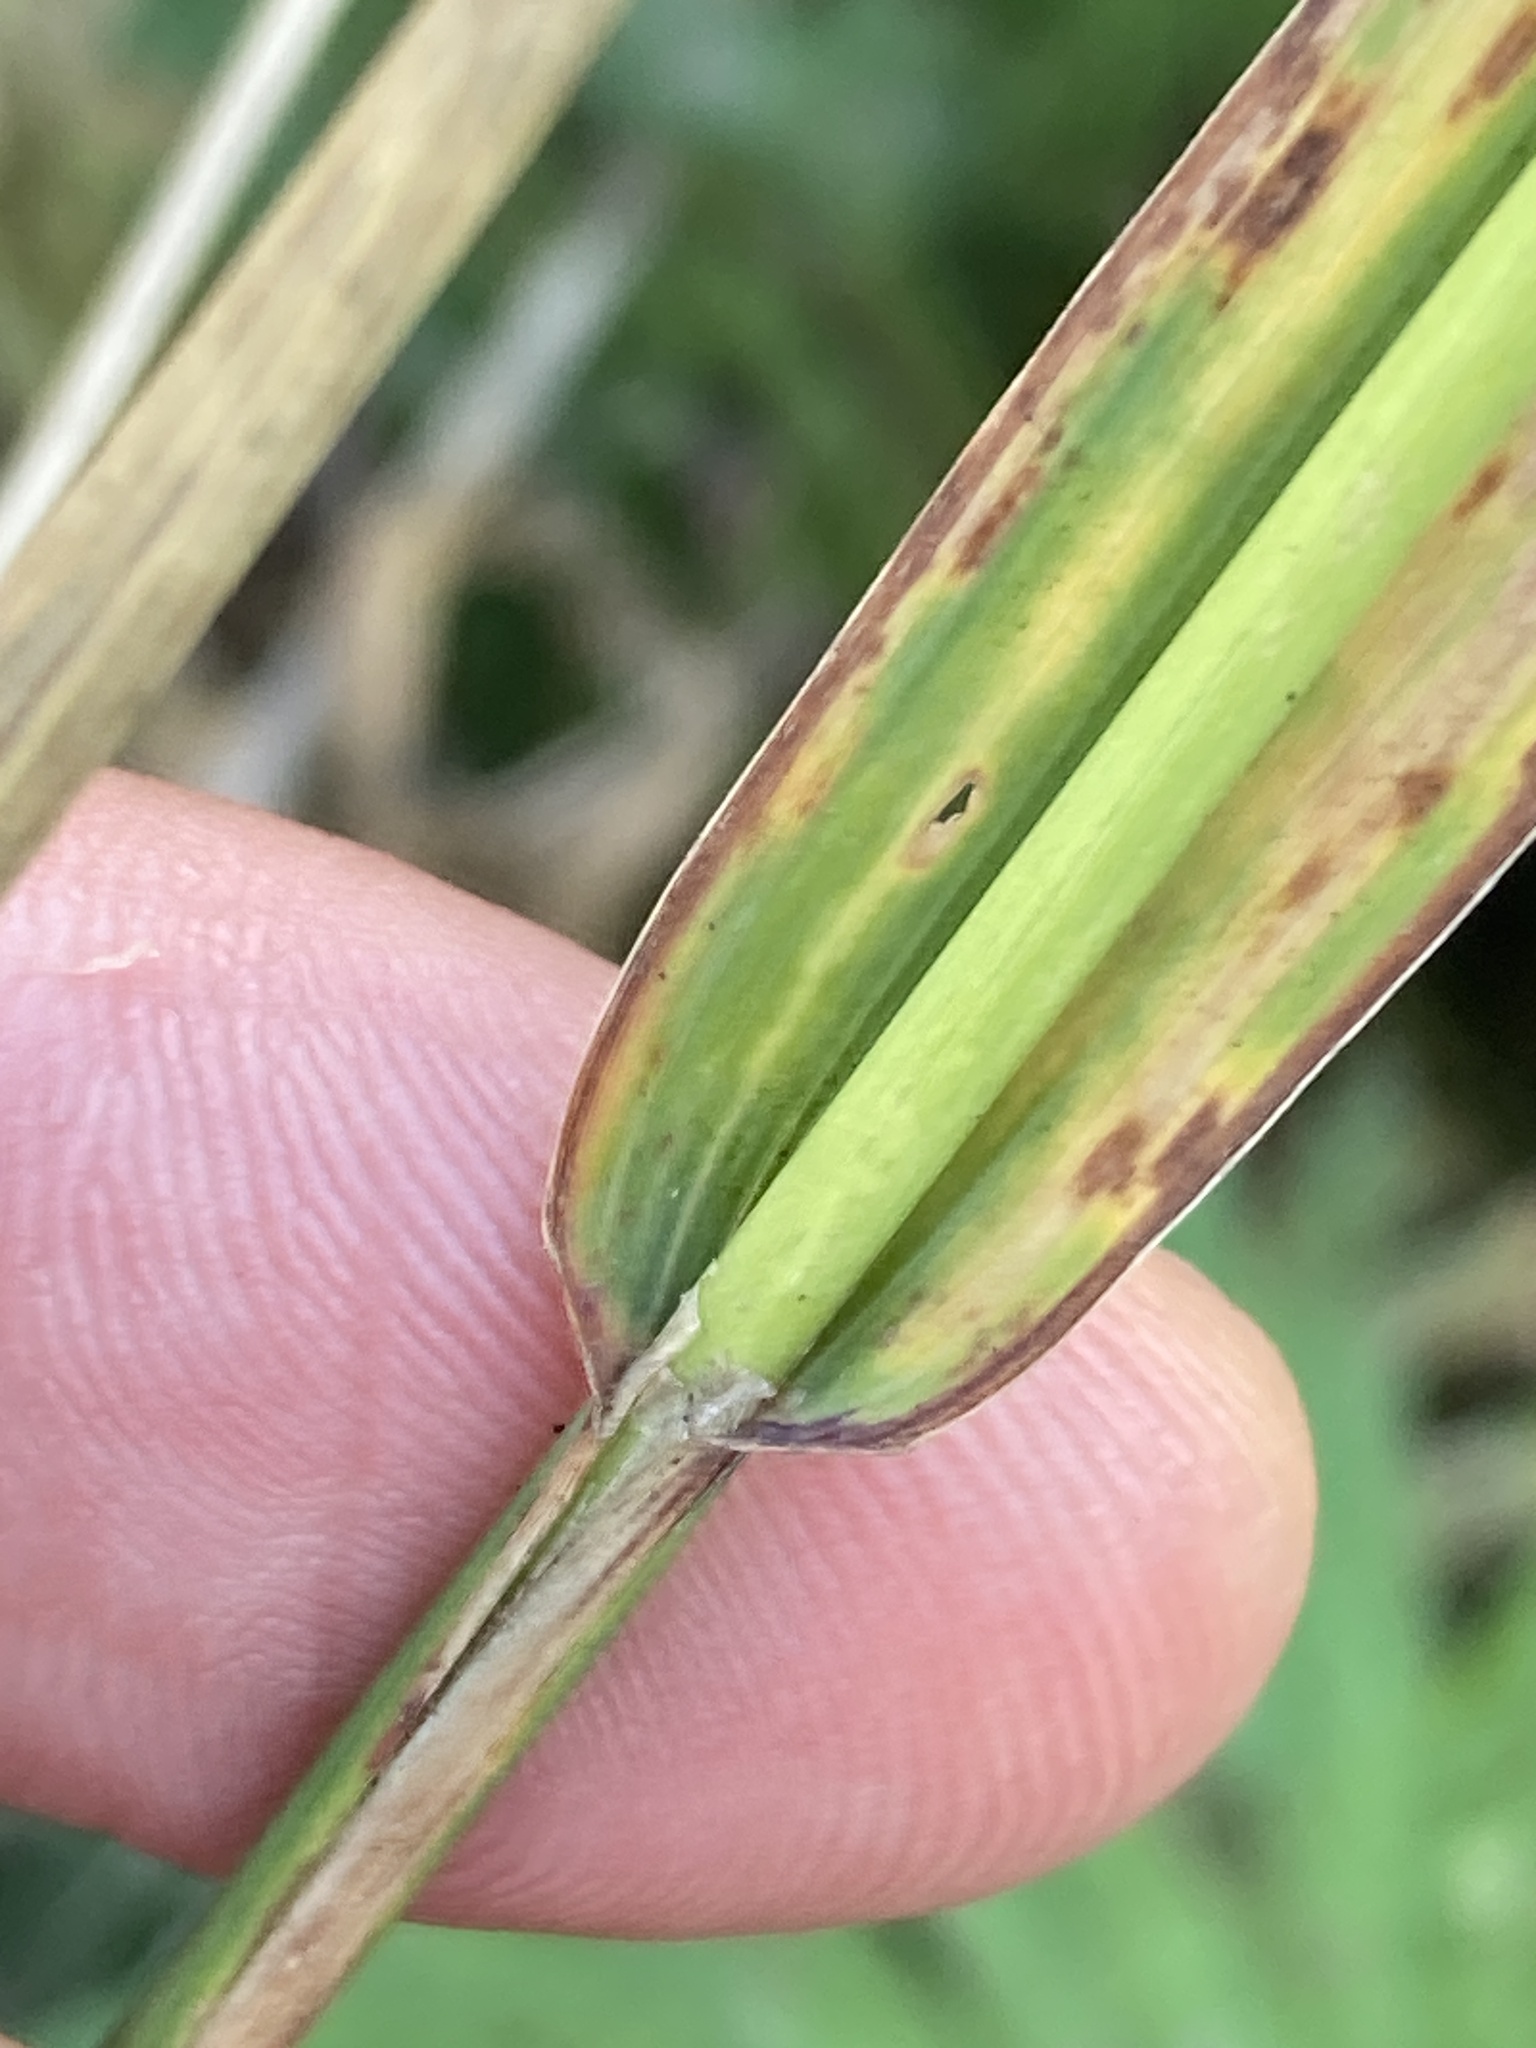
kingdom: Plantae
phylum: Tracheophyta
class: Liliopsida
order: Poales
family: Poaceae
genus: Phleum
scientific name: Phleum pratense
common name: Timothy grass
